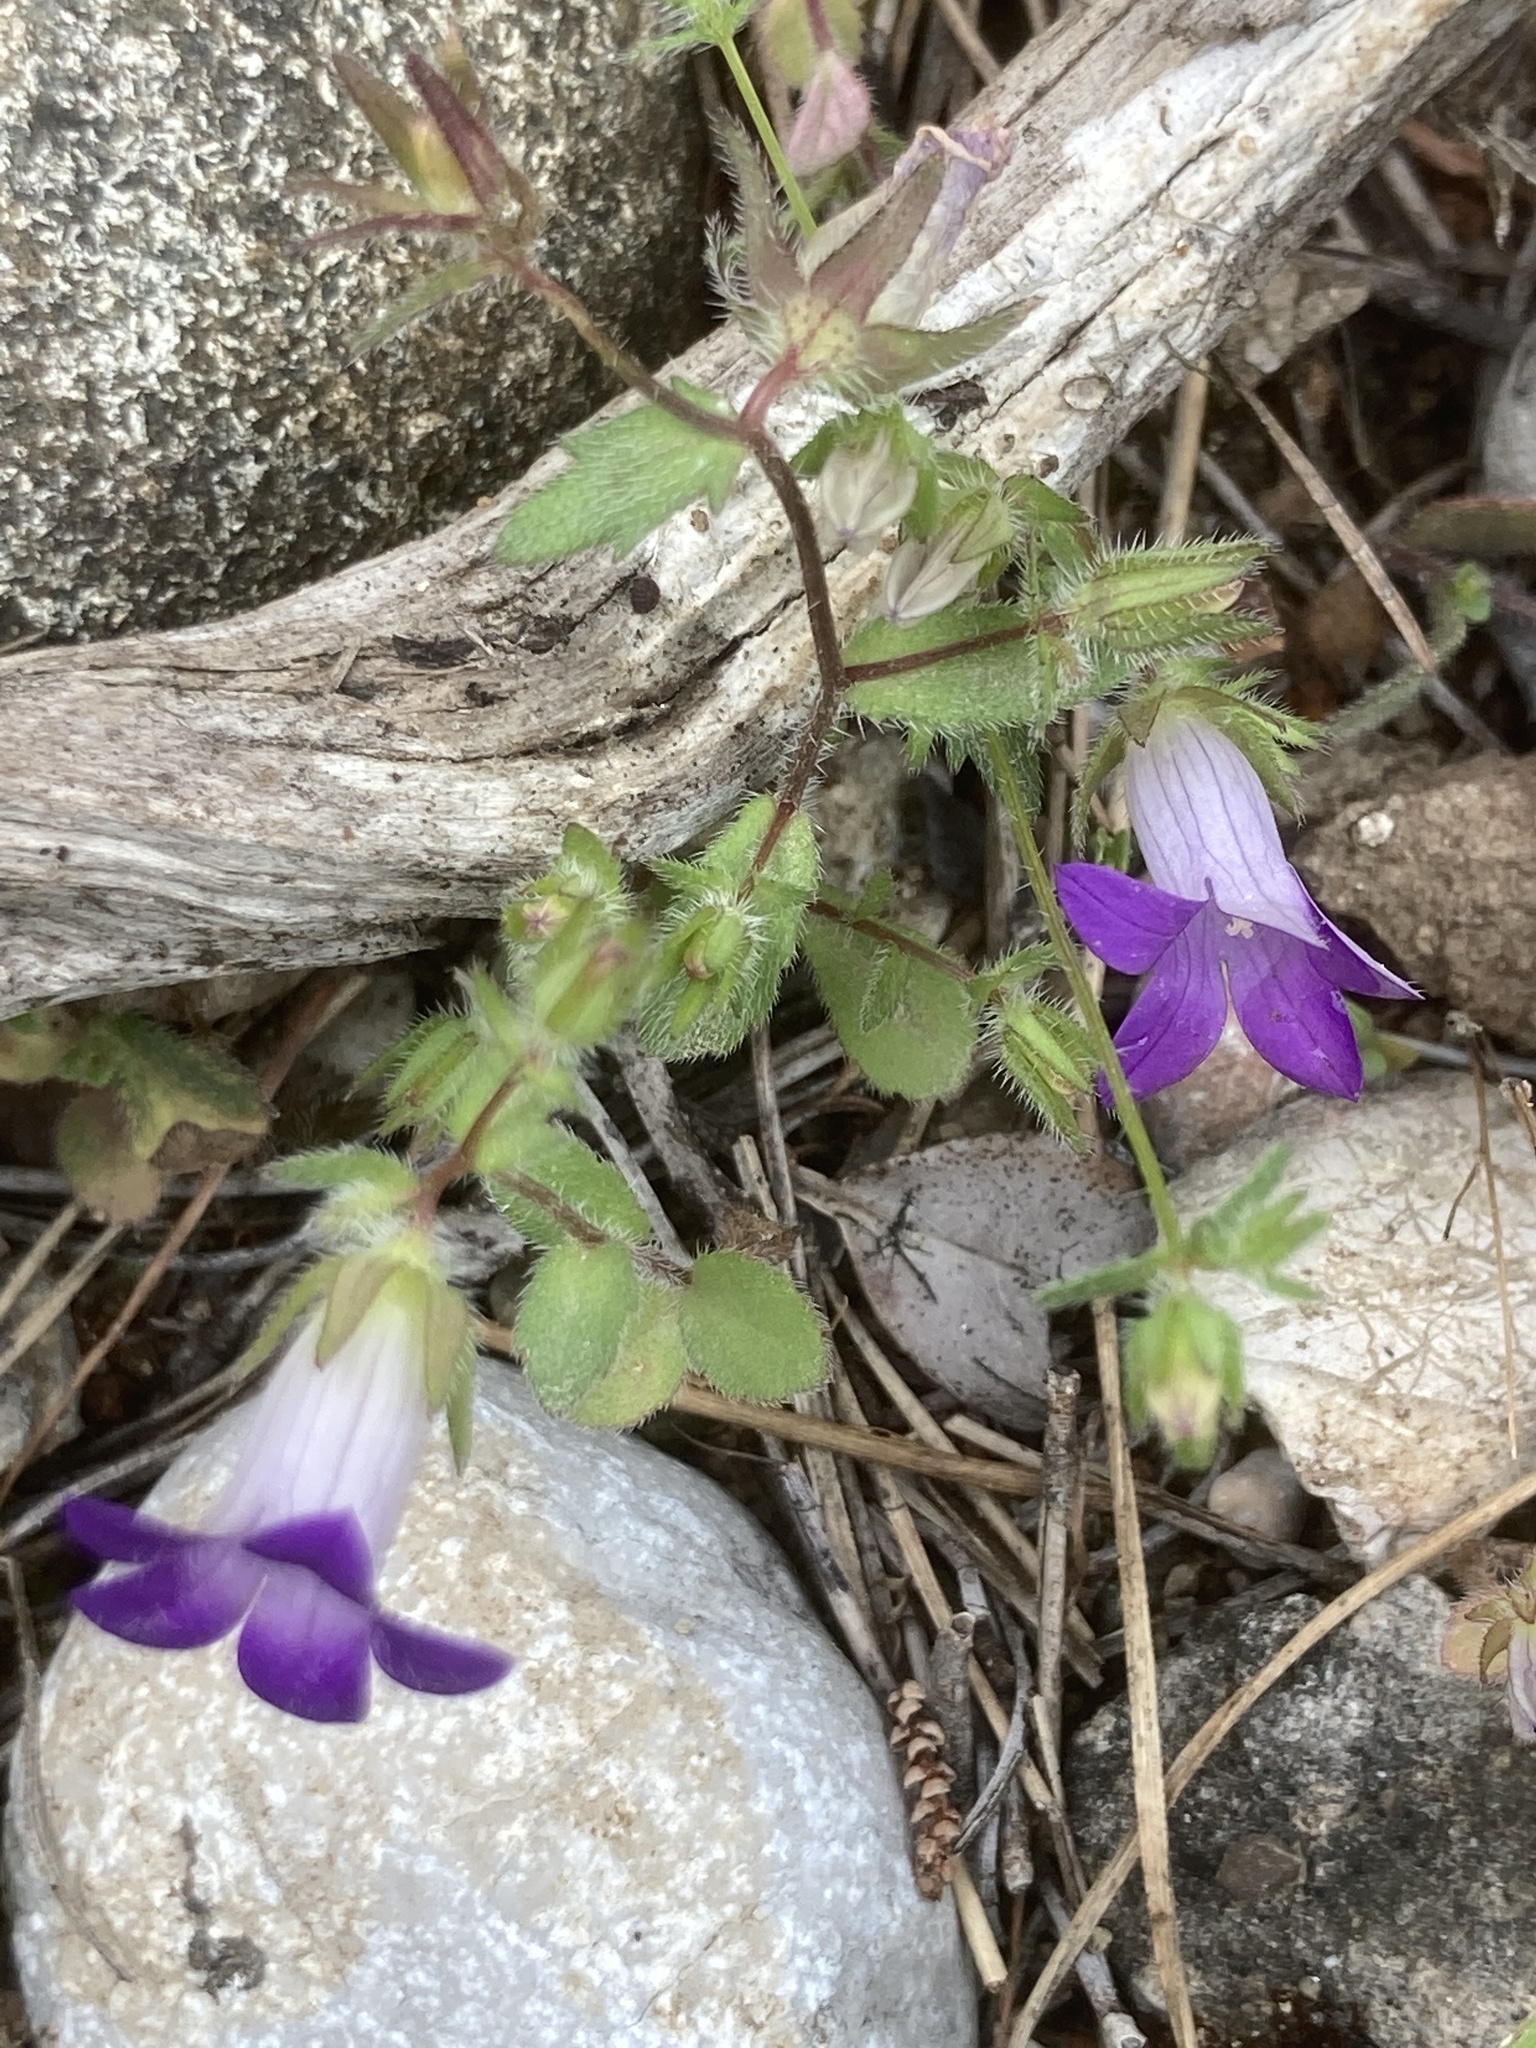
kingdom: Plantae
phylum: Tracheophyta
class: Magnoliopsida
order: Asterales
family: Campanulaceae
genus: Campanula
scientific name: Campanula rhodensis
